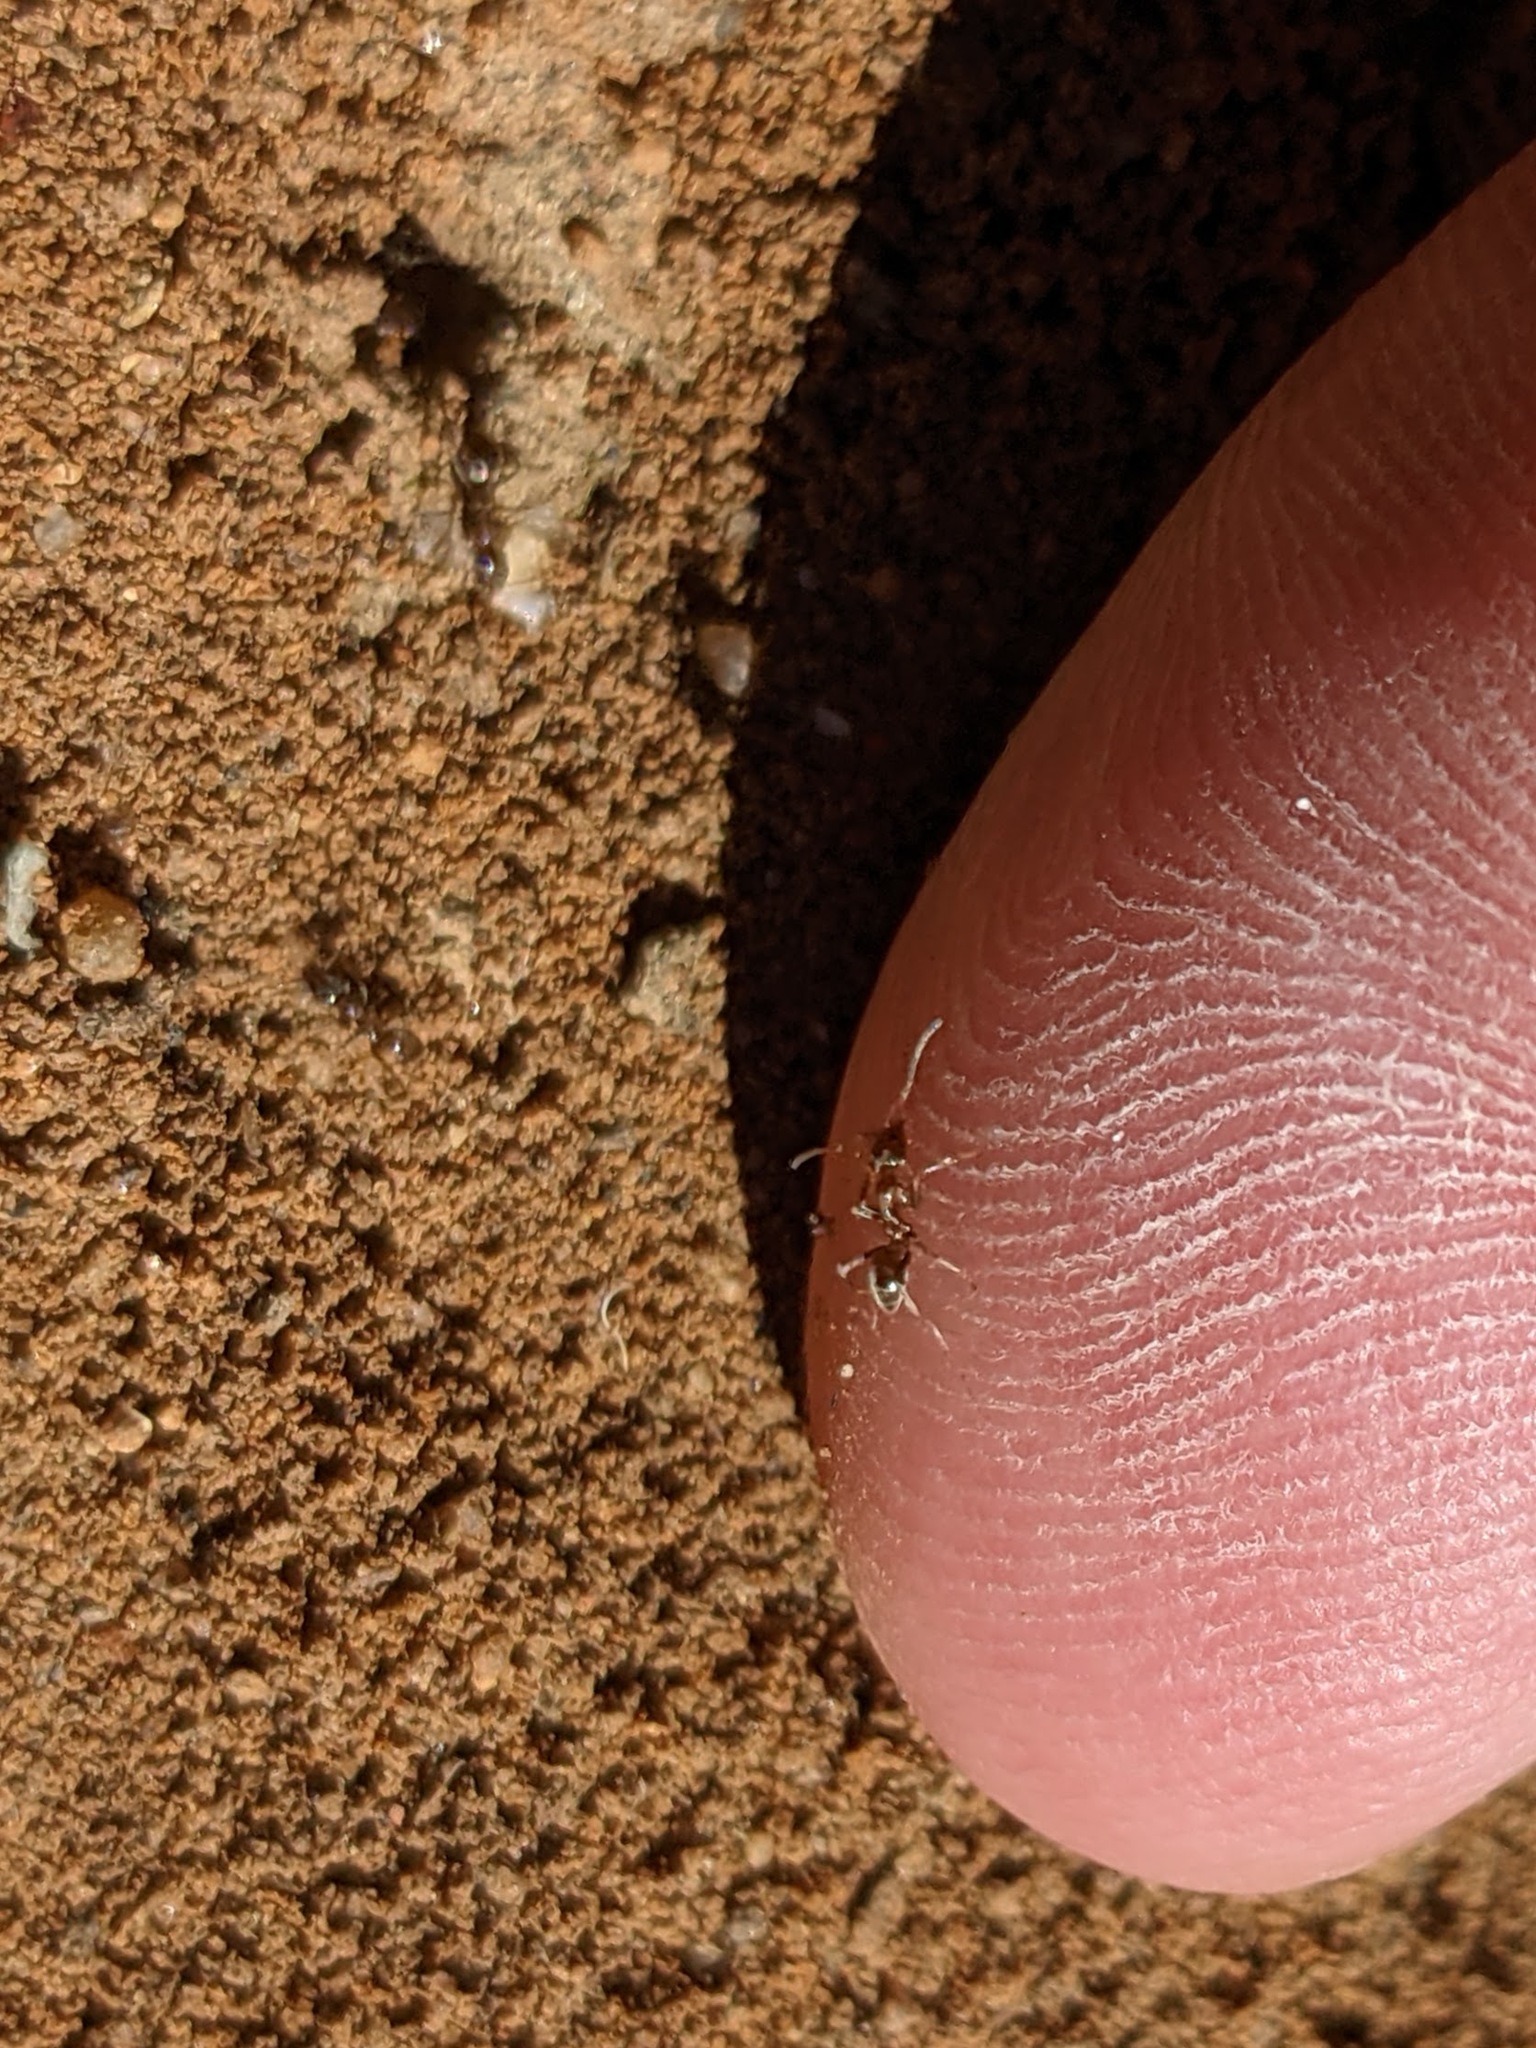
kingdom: Animalia
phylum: Arthropoda
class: Insecta
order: Hymenoptera
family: Formicidae
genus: Linepithema
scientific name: Linepithema humile
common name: Argentine ant
